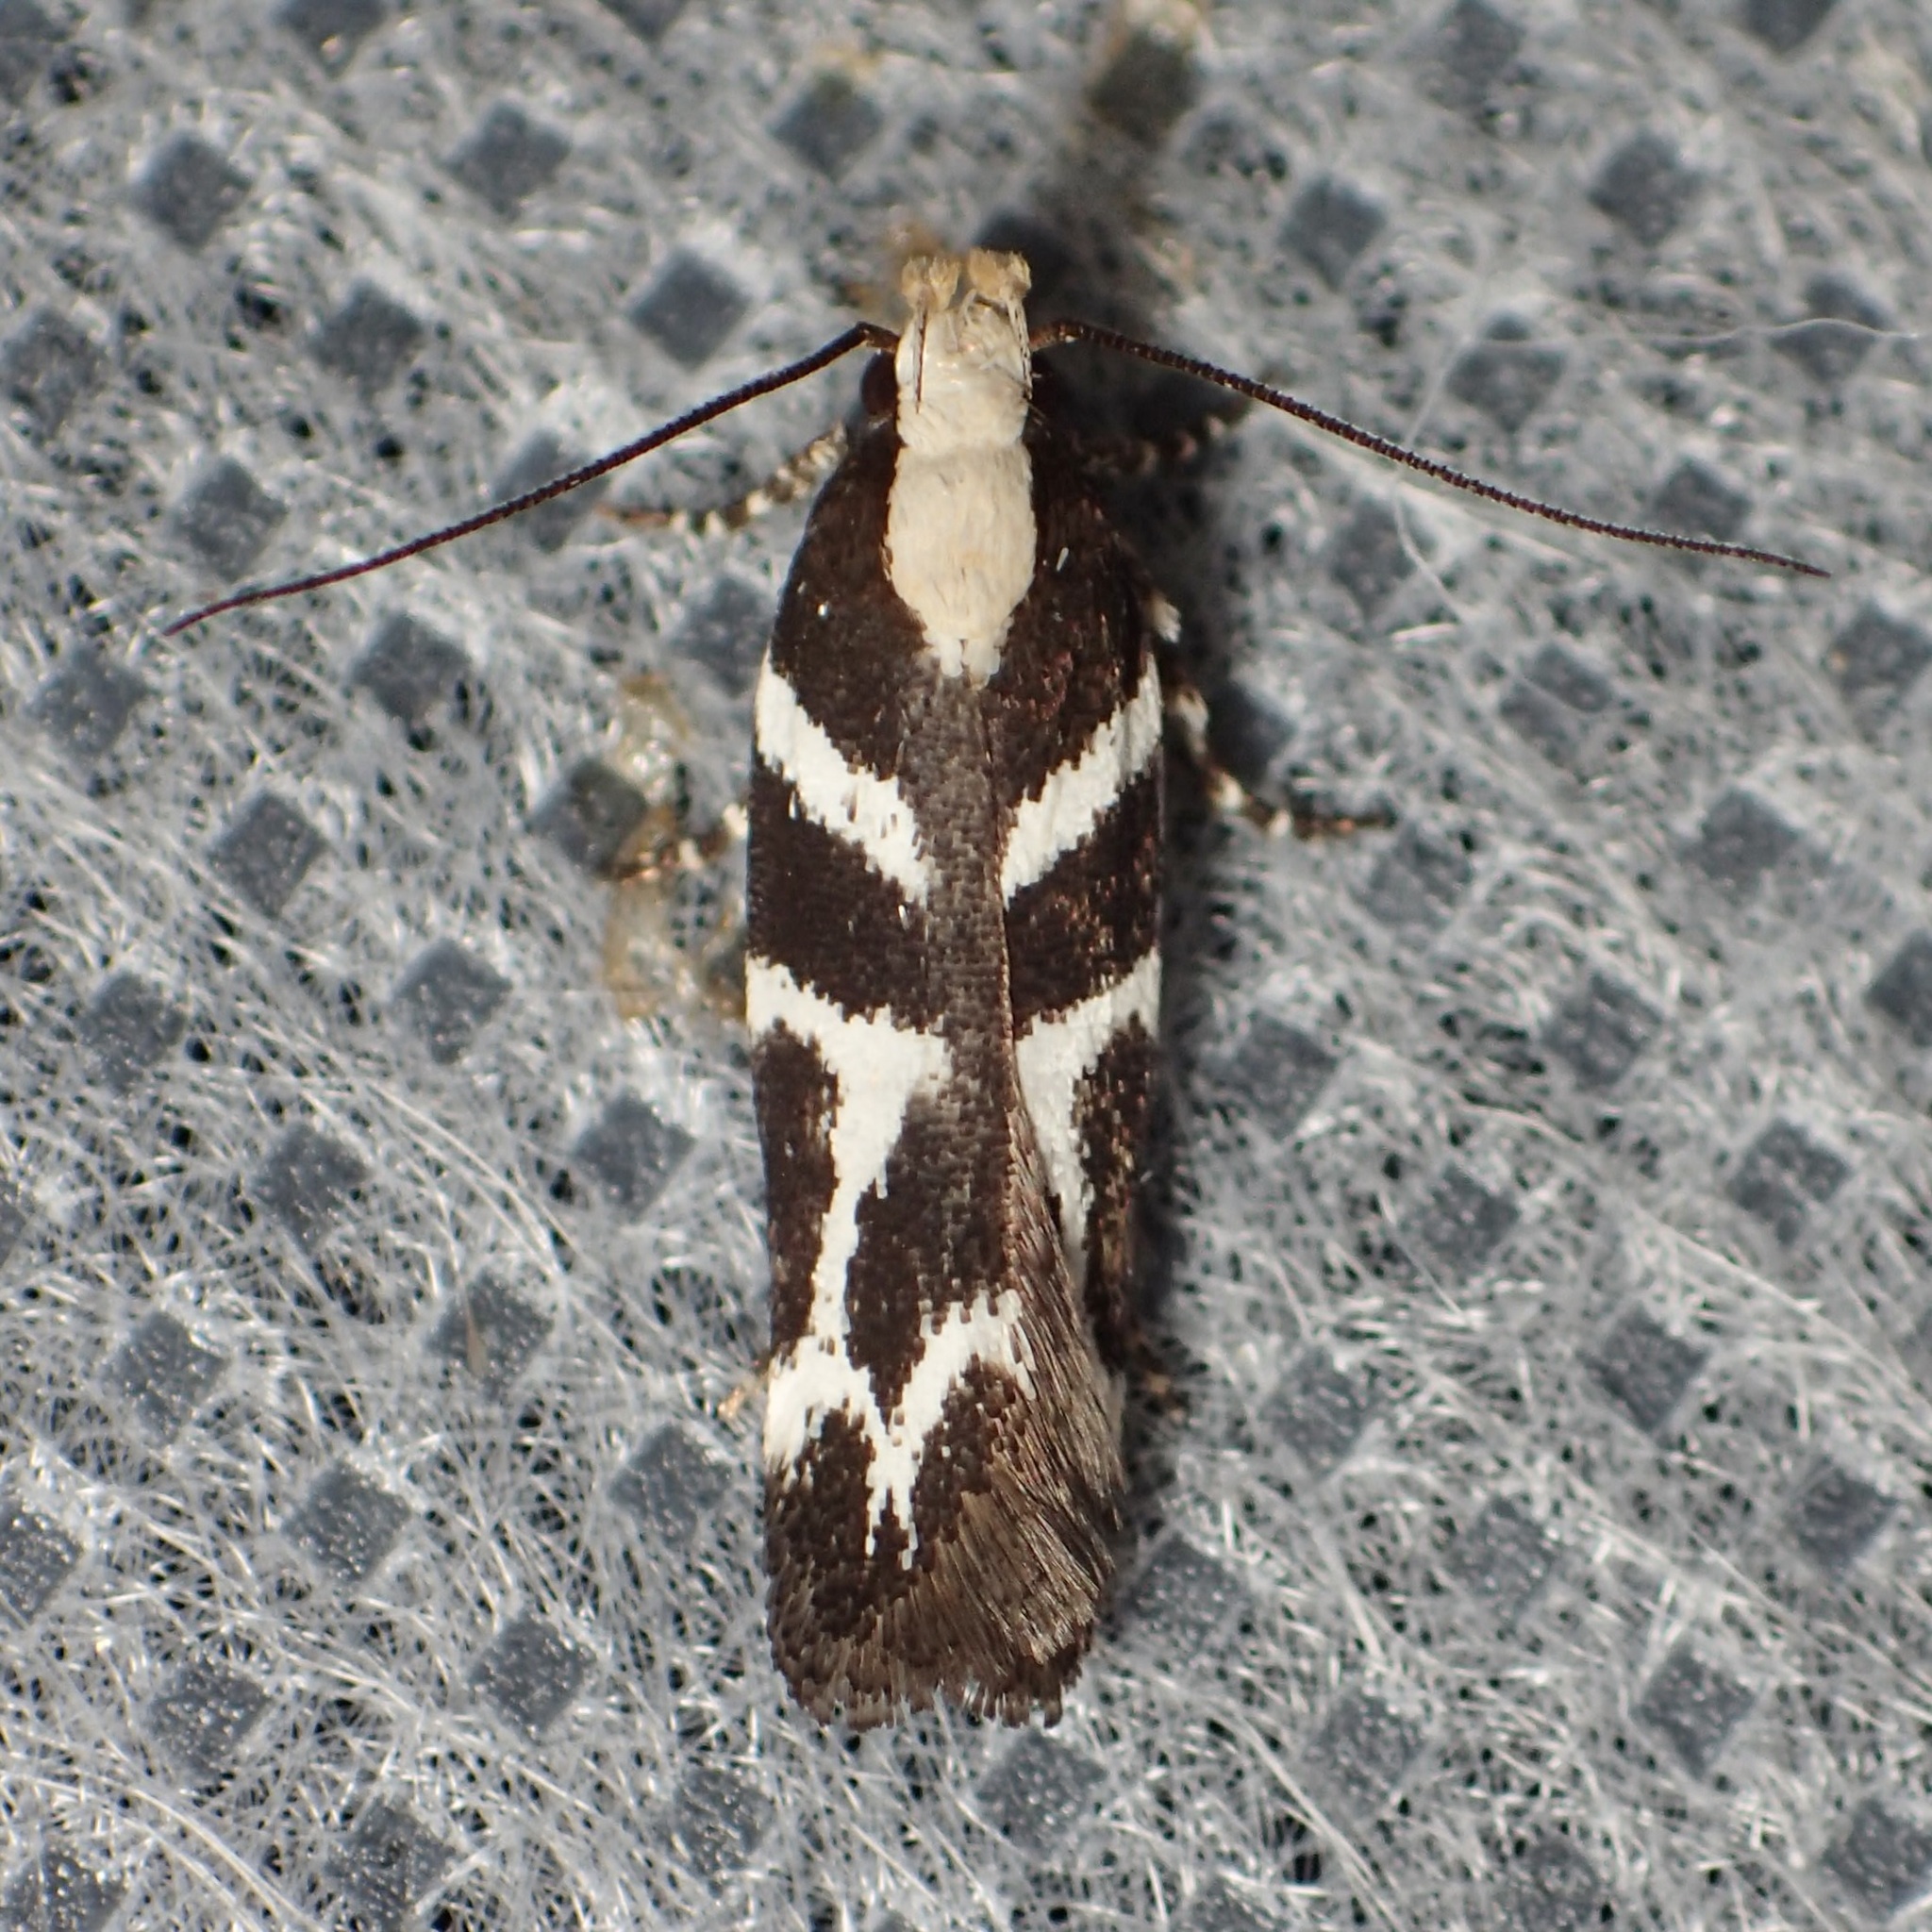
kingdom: Animalia
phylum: Arthropoda
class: Insecta
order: Lepidoptera
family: Gelechiidae
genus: Filatima
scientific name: Filatima albilorella
